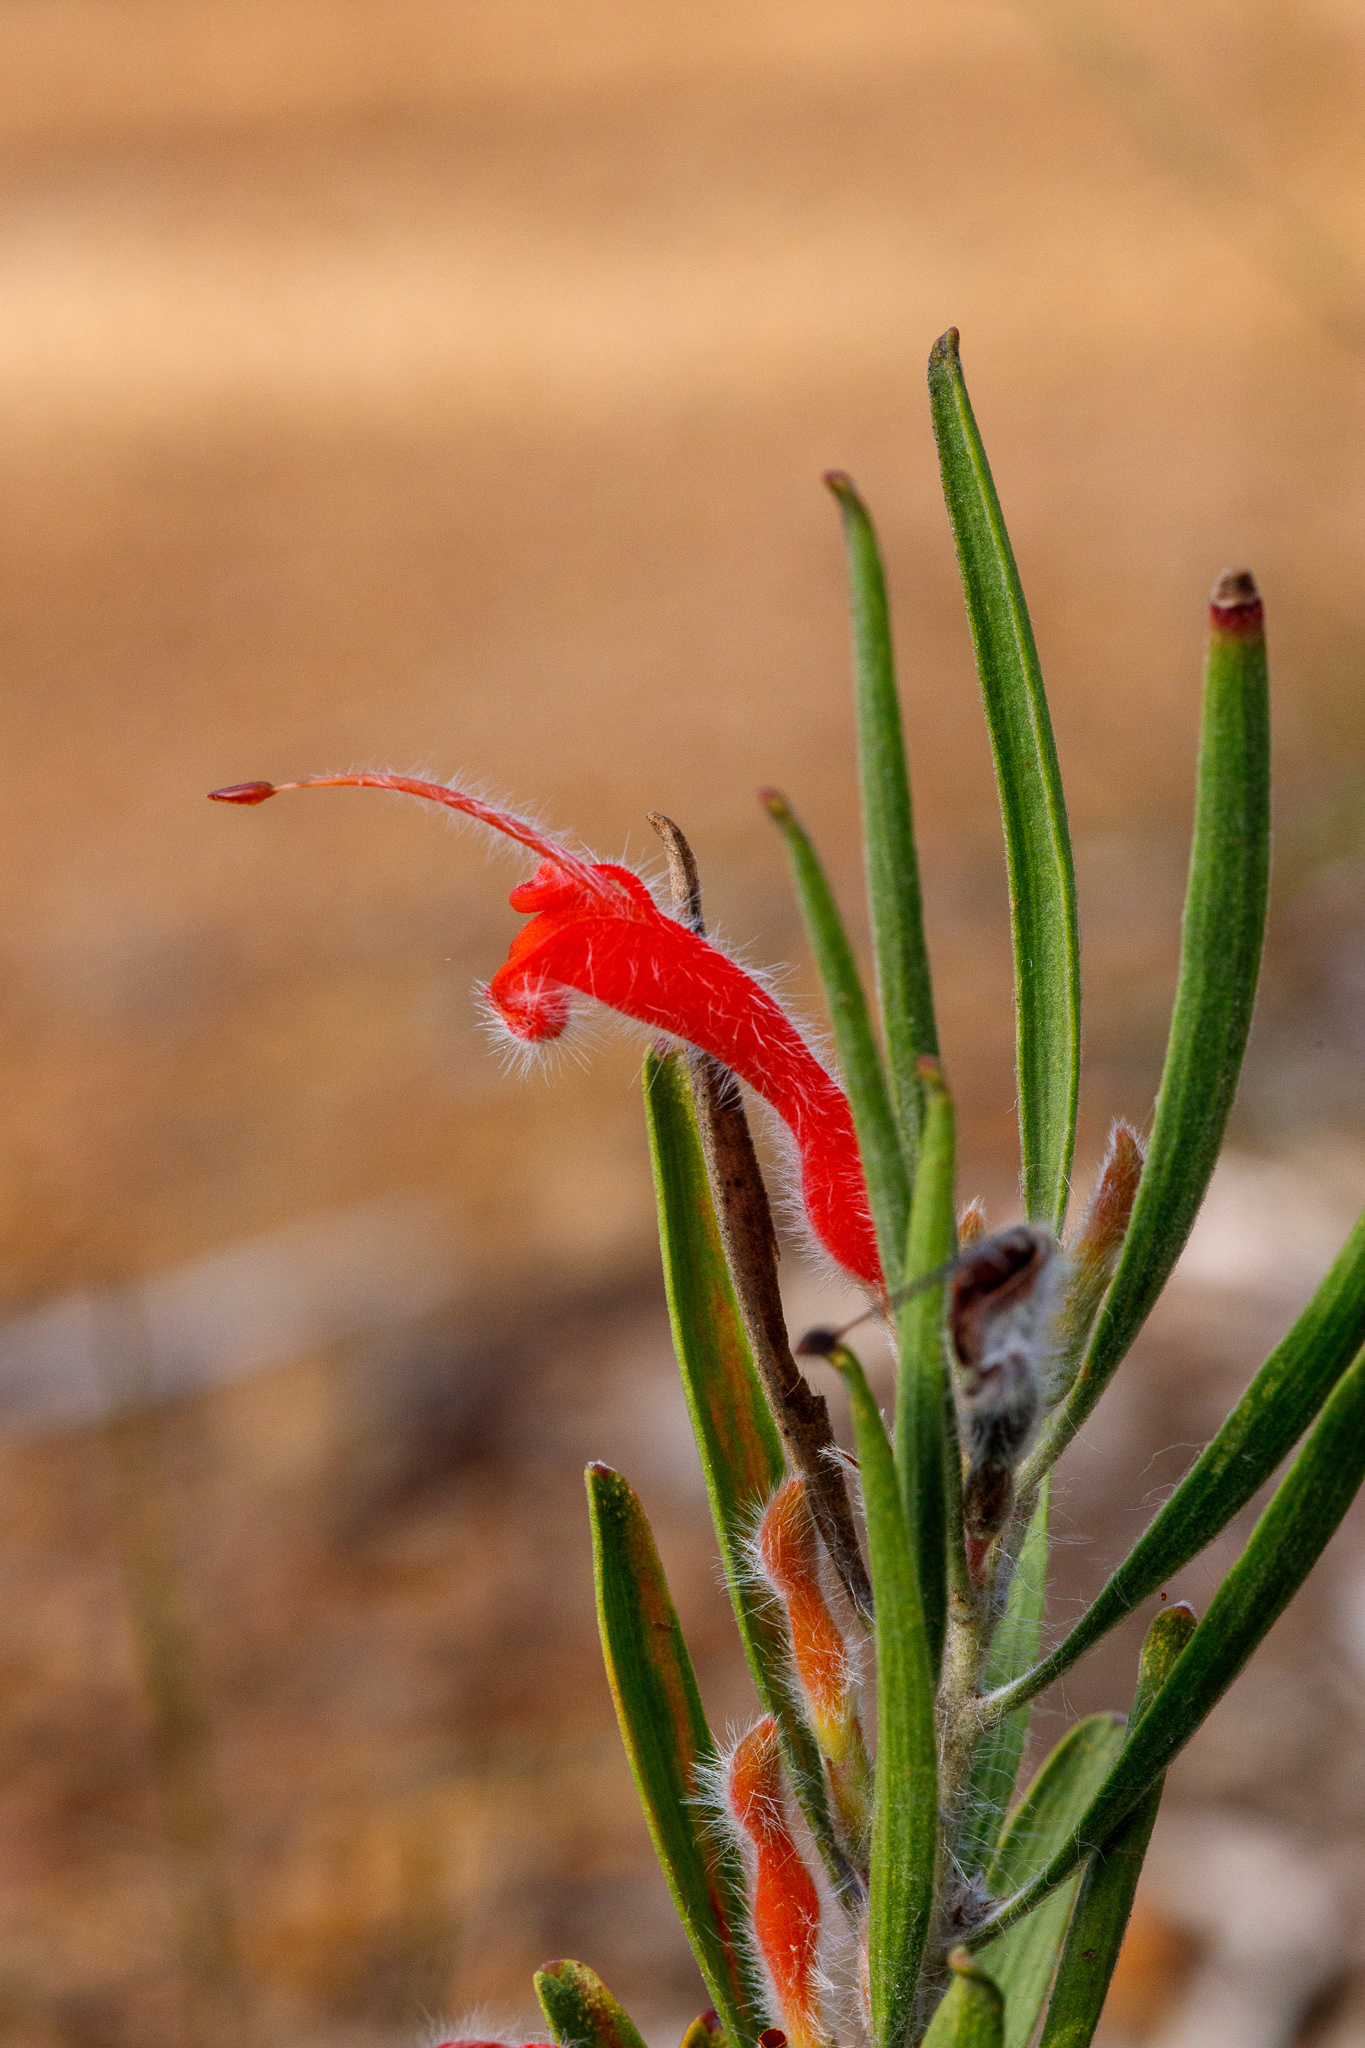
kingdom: Plantae
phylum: Tracheophyta
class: Magnoliopsida
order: Proteales
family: Proteaceae
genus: Adenanthos
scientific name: Adenanthos barbiger
